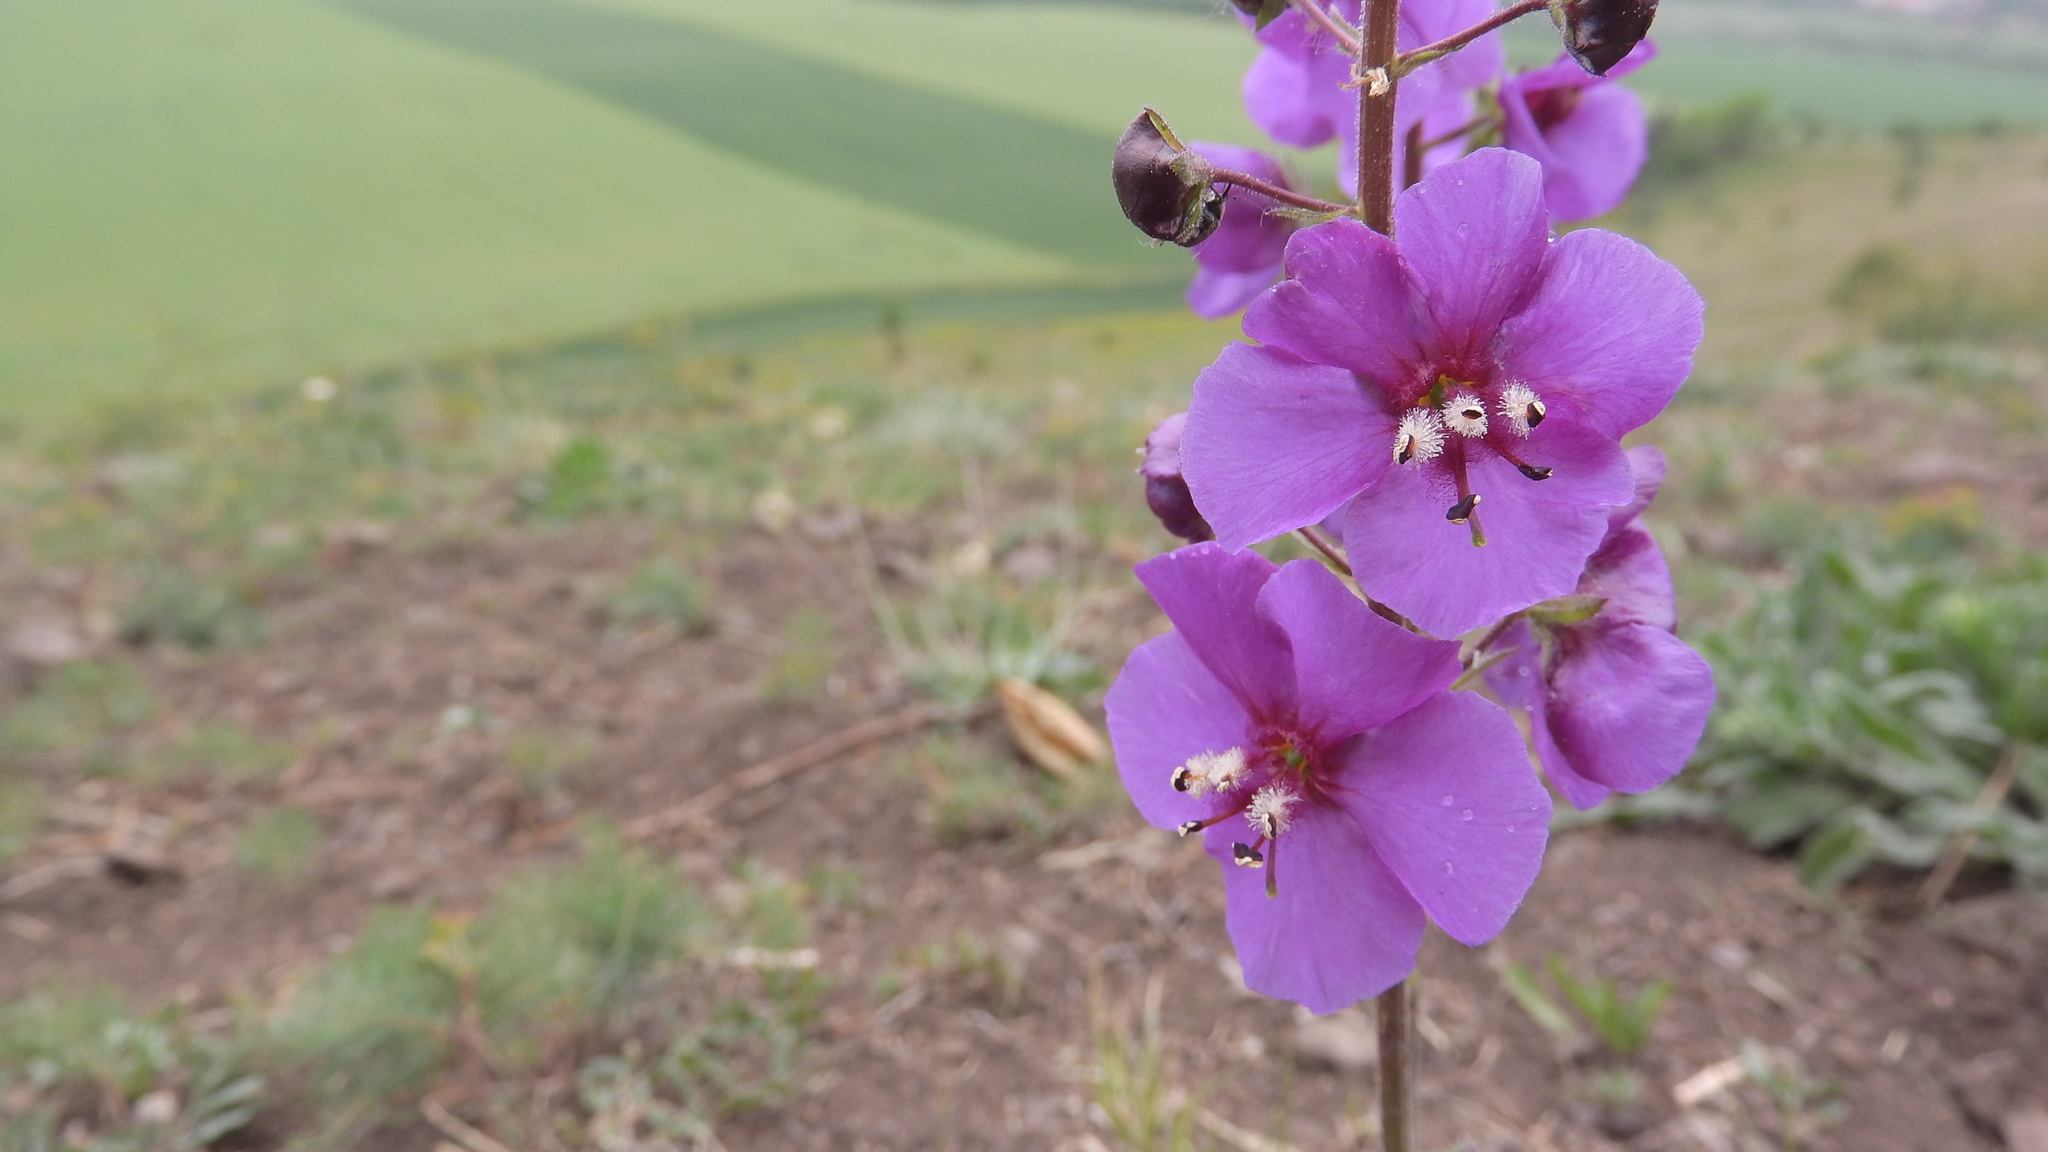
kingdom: Plantae
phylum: Tracheophyta
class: Magnoliopsida
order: Lamiales
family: Scrophulariaceae
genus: Verbascum
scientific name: Verbascum phoeniceum
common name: Purple mullein
